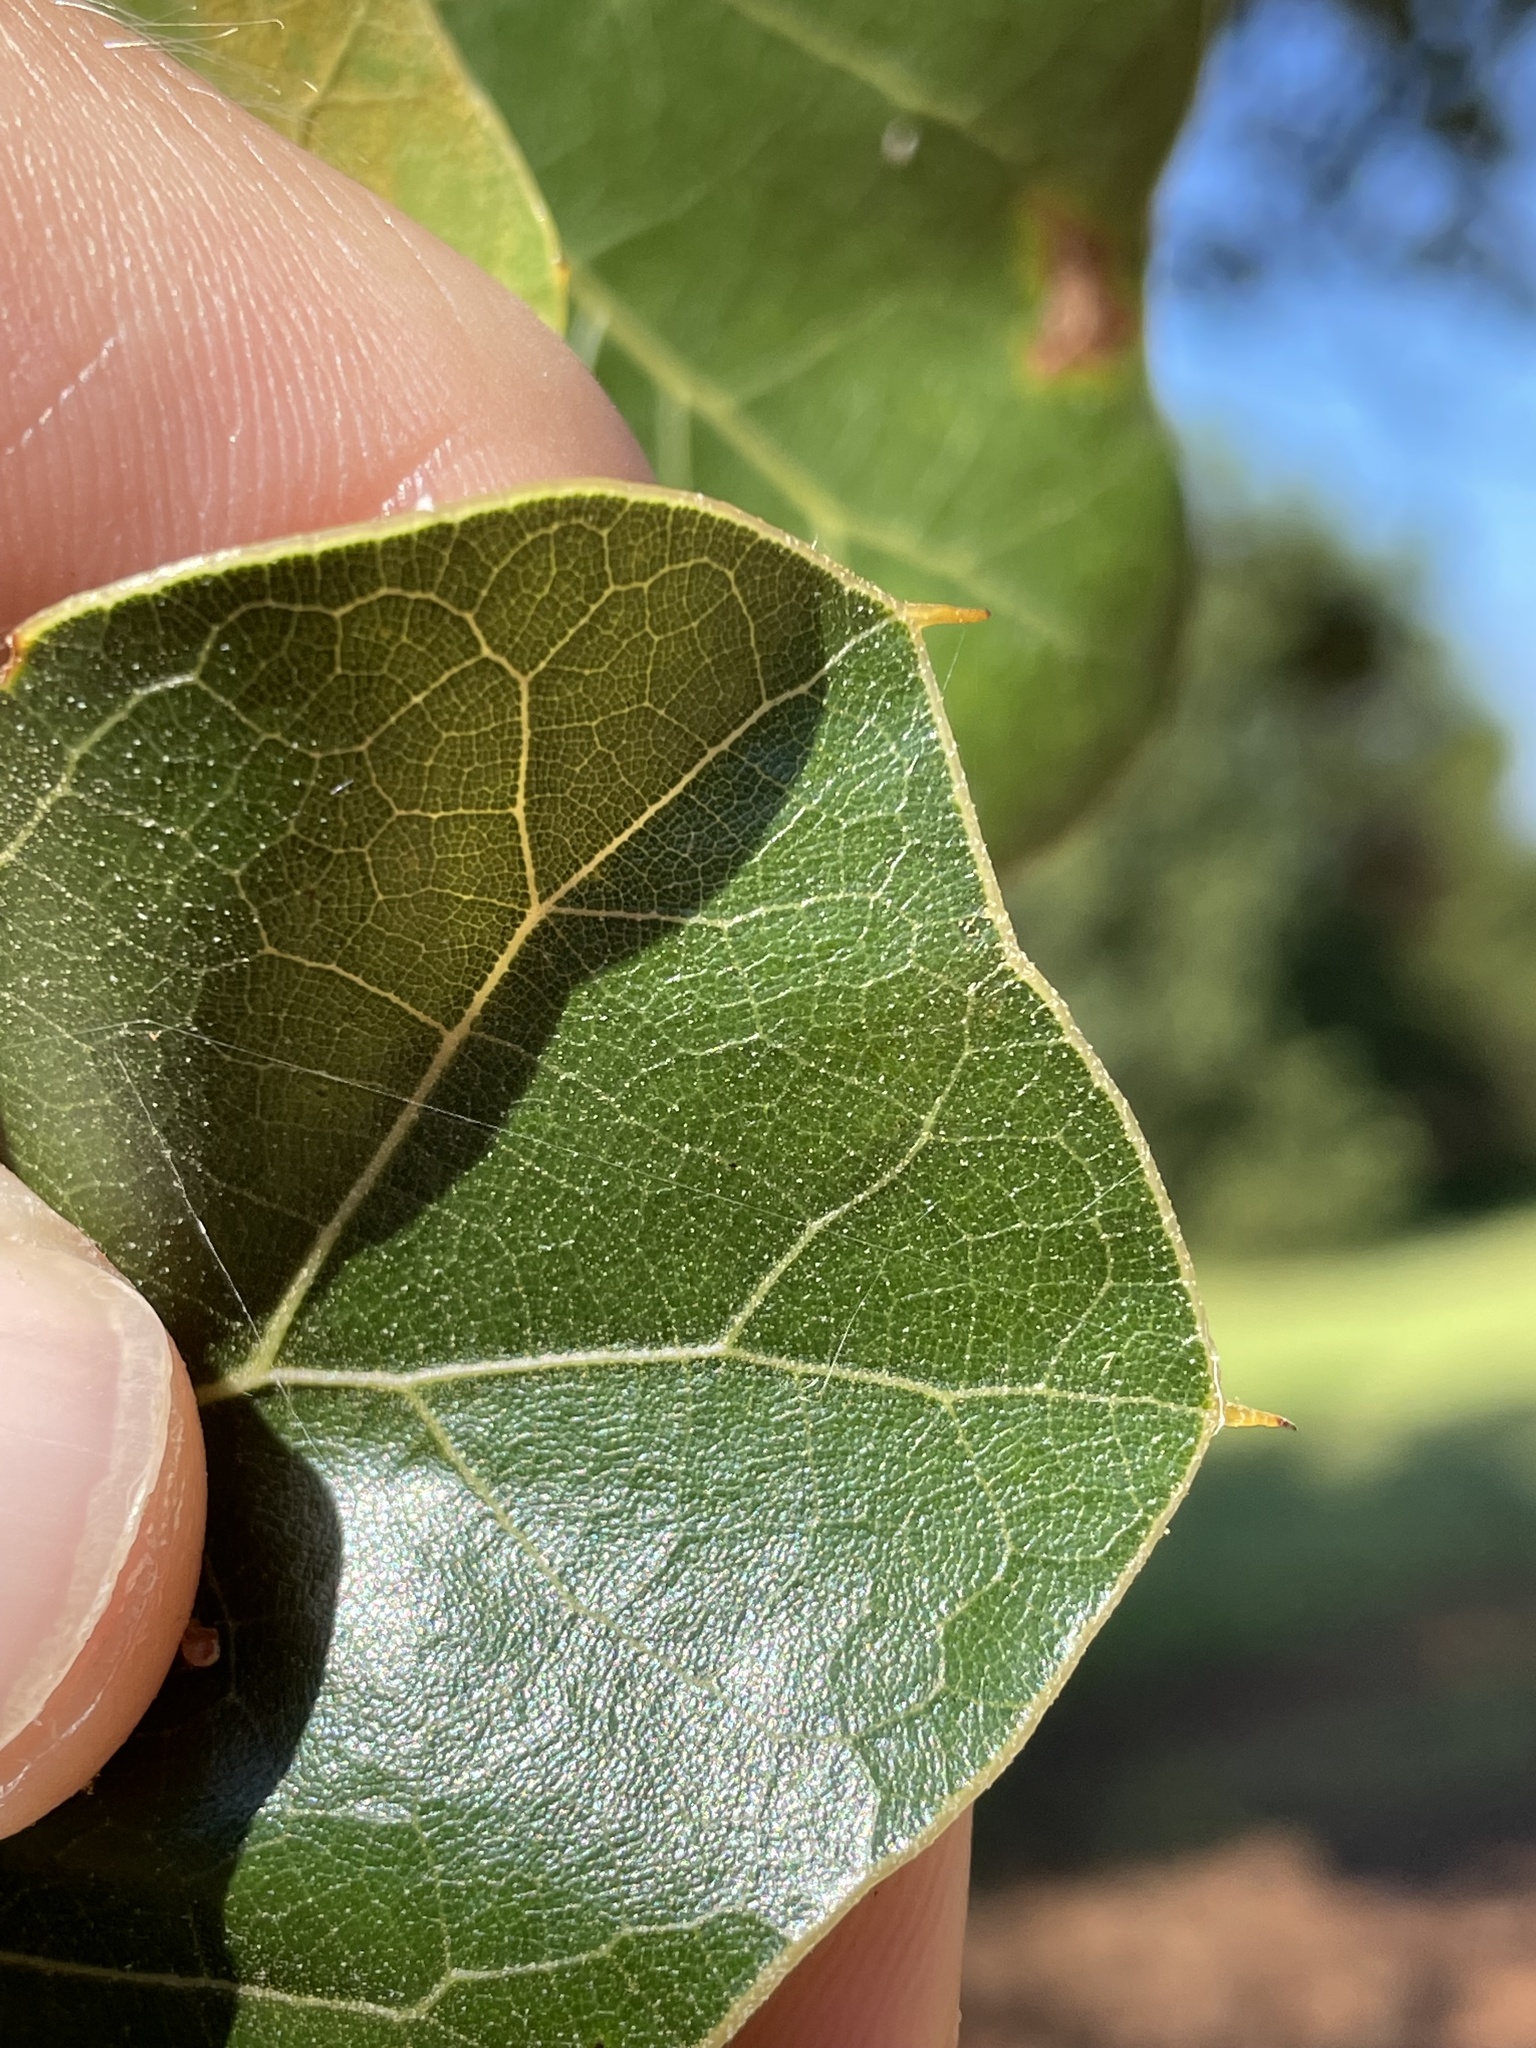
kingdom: Plantae
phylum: Tracheophyta
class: Magnoliopsida
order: Fagales
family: Fagaceae
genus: Quercus
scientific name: Quercus marilandica
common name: Blackjack oak
